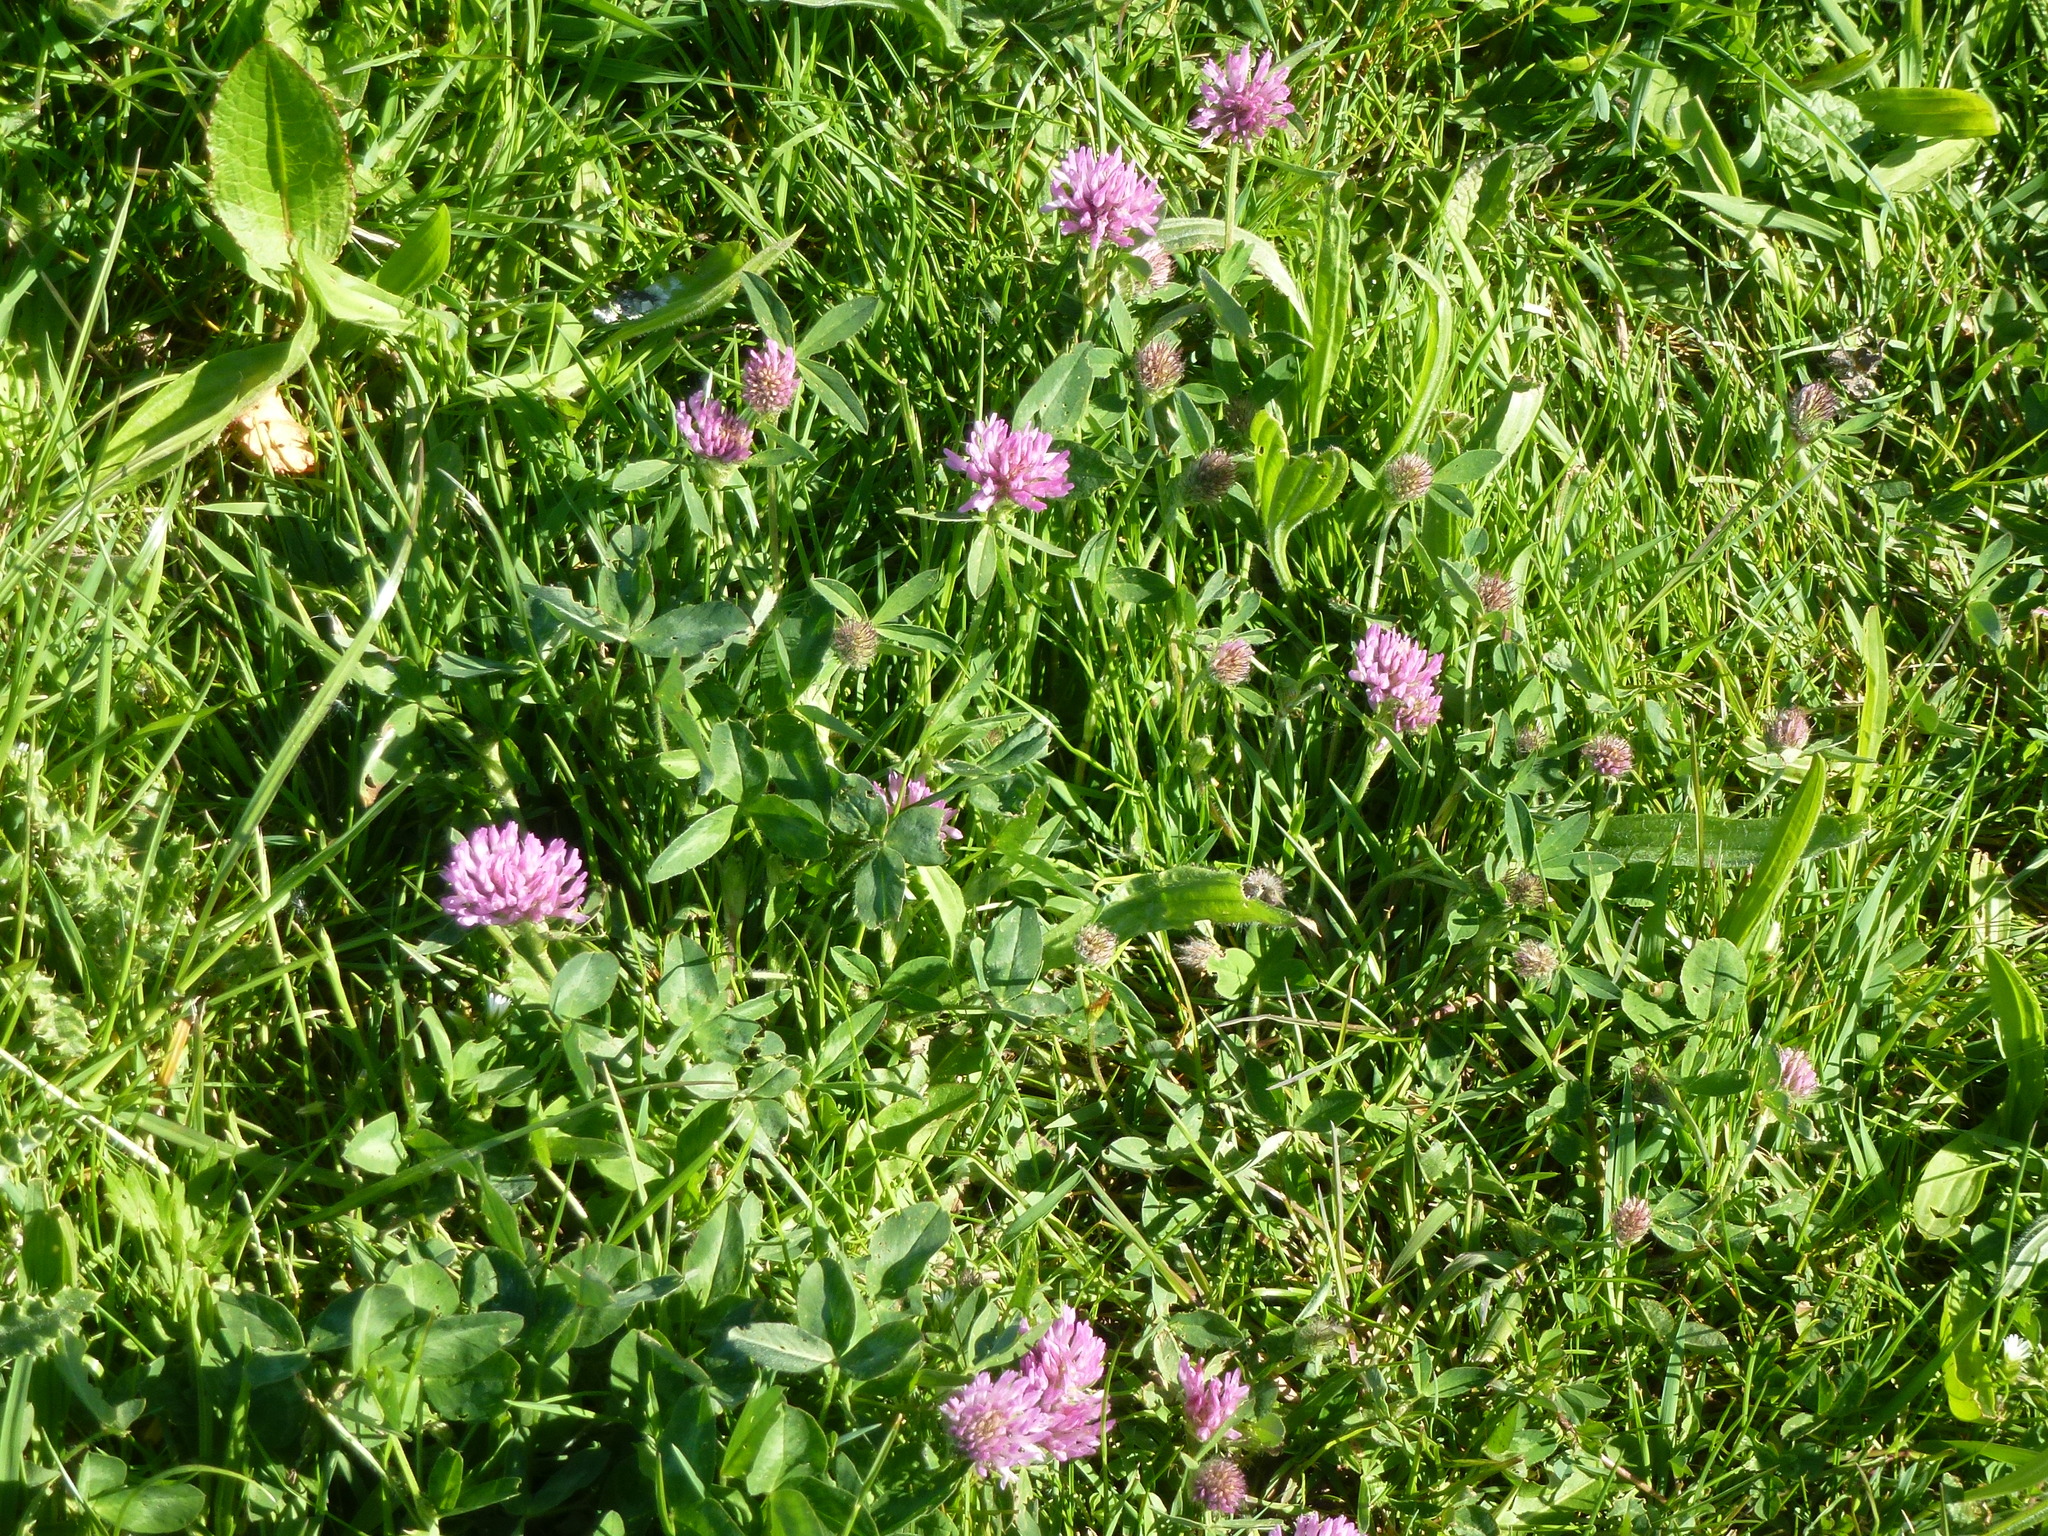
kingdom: Plantae
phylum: Tracheophyta
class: Magnoliopsida
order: Fabales
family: Fabaceae
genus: Trifolium
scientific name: Trifolium pratense
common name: Red clover
